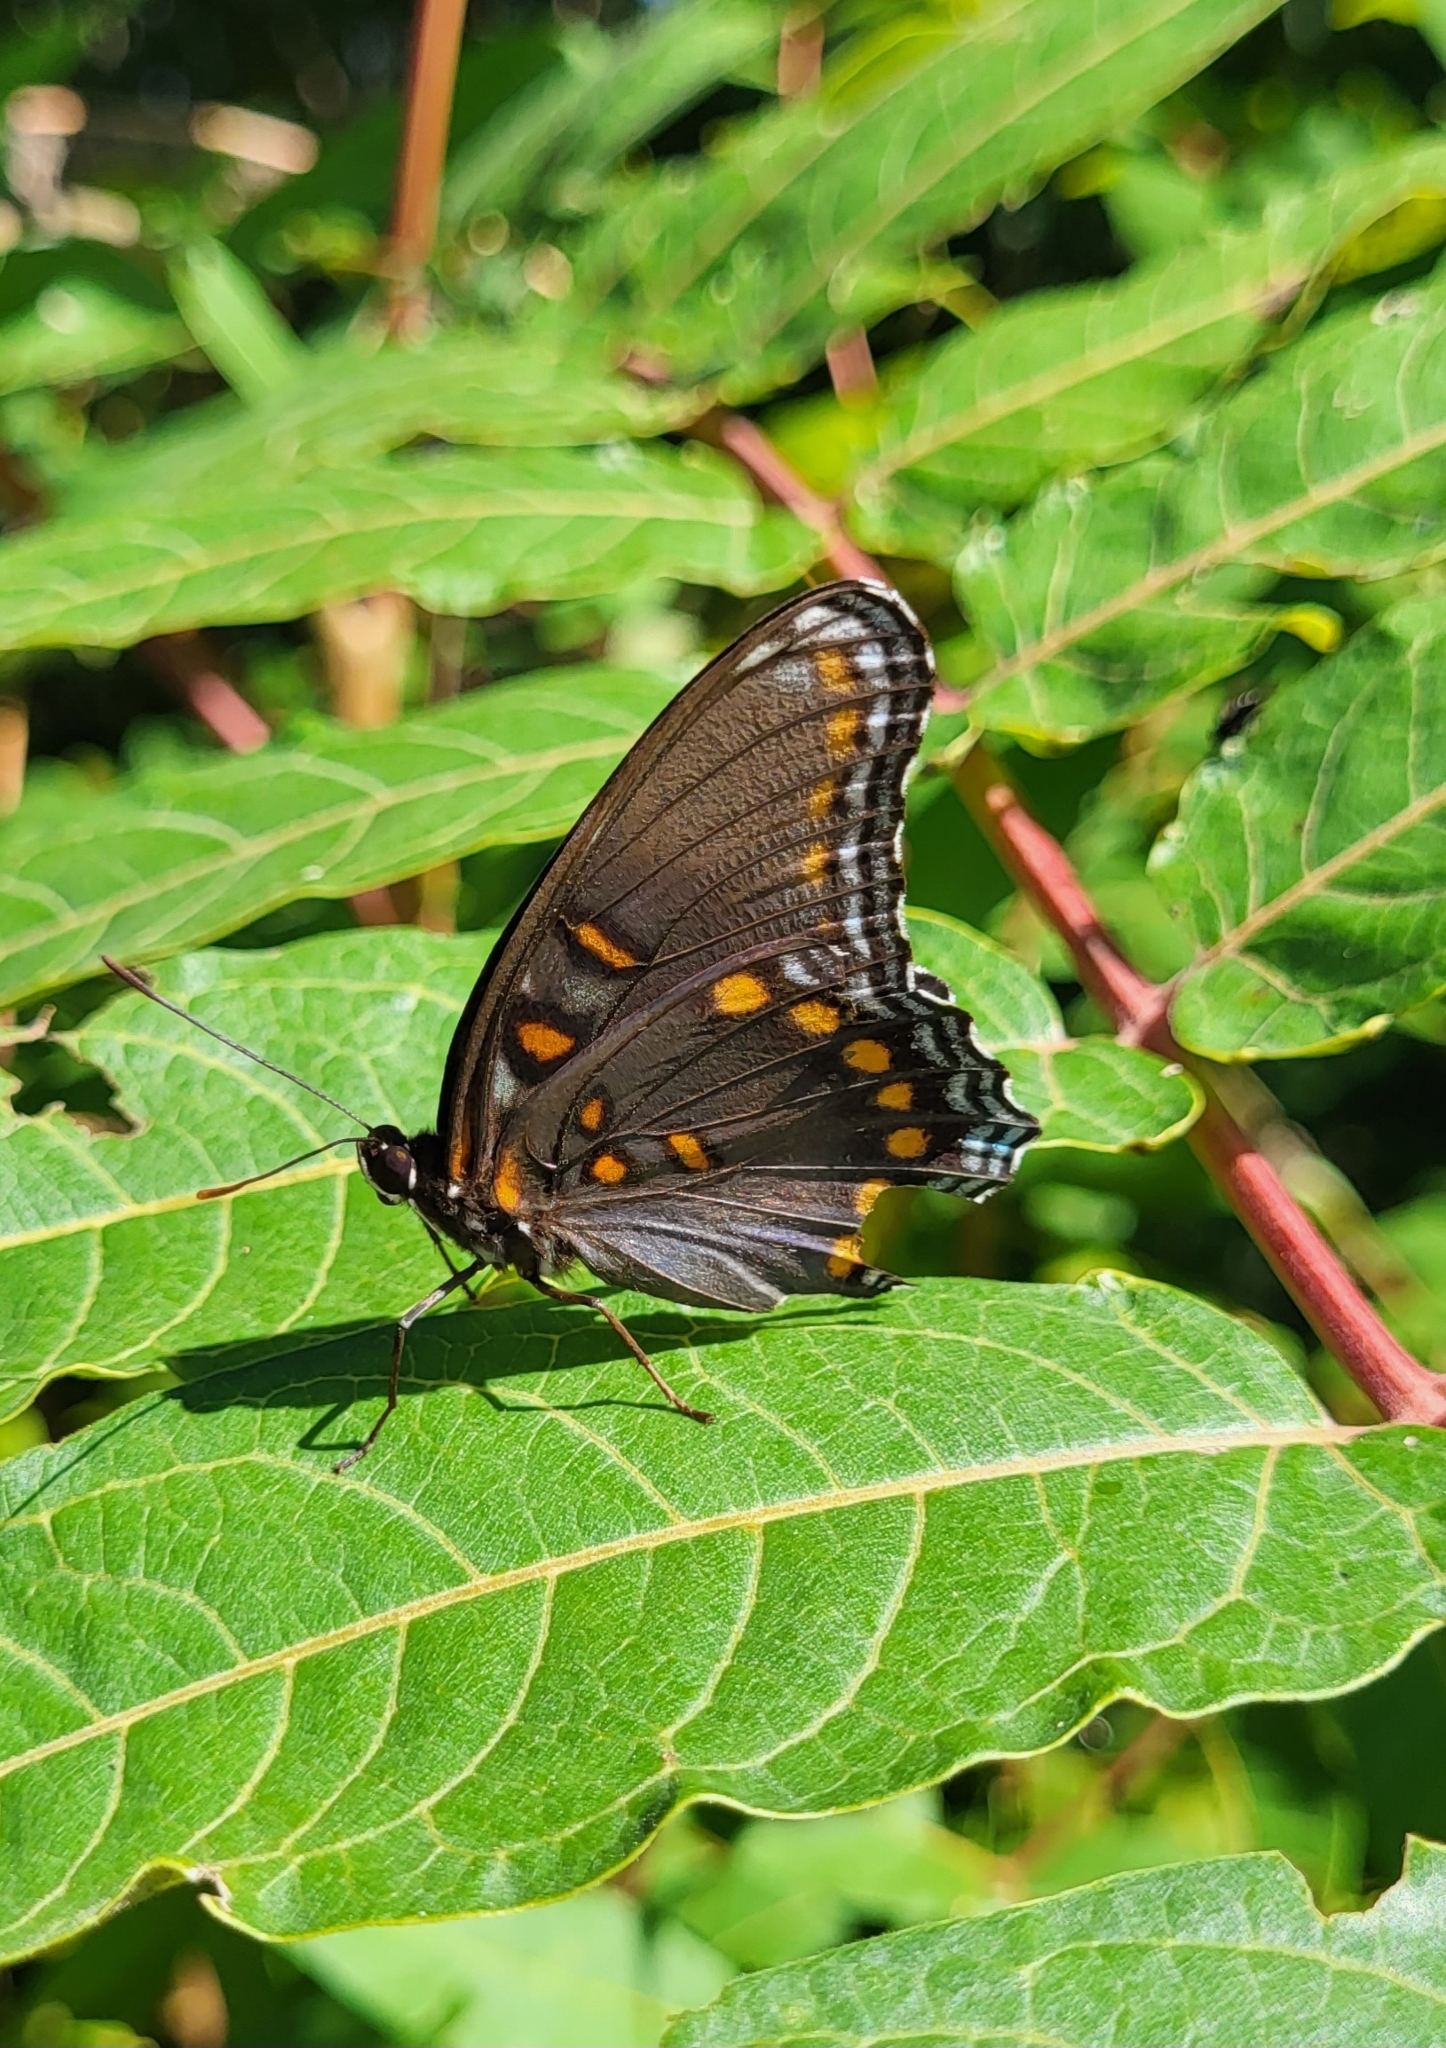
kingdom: Animalia
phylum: Arthropoda
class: Insecta
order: Lepidoptera
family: Nymphalidae
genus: Limenitis
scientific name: Limenitis astyanax
